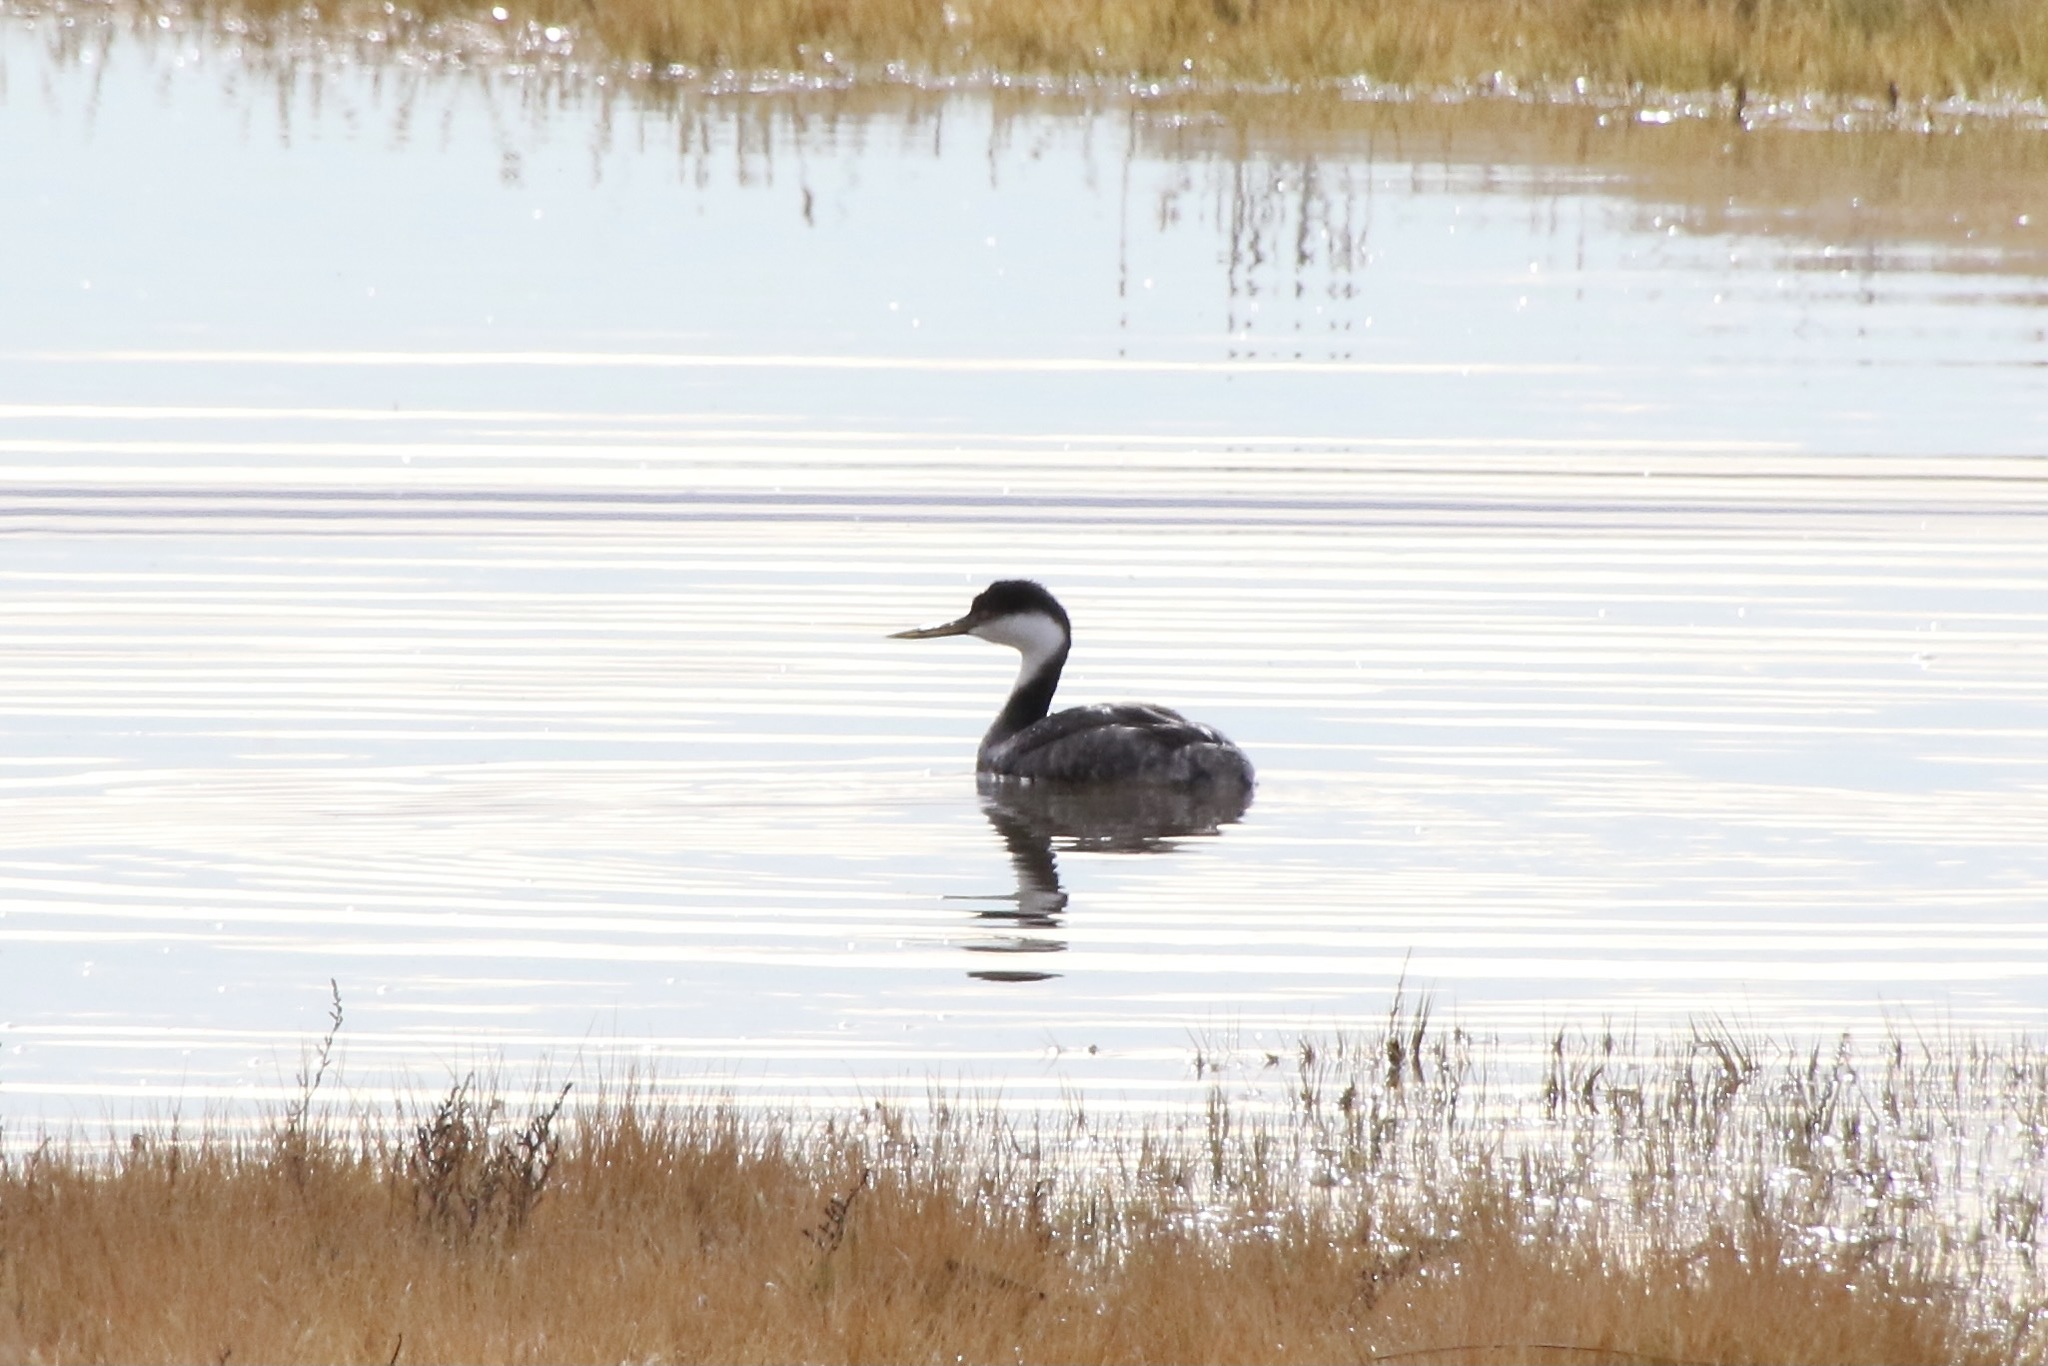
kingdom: Animalia
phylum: Chordata
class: Aves
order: Podicipediformes
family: Podicipedidae
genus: Aechmophorus
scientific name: Aechmophorus occidentalis
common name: Western grebe
